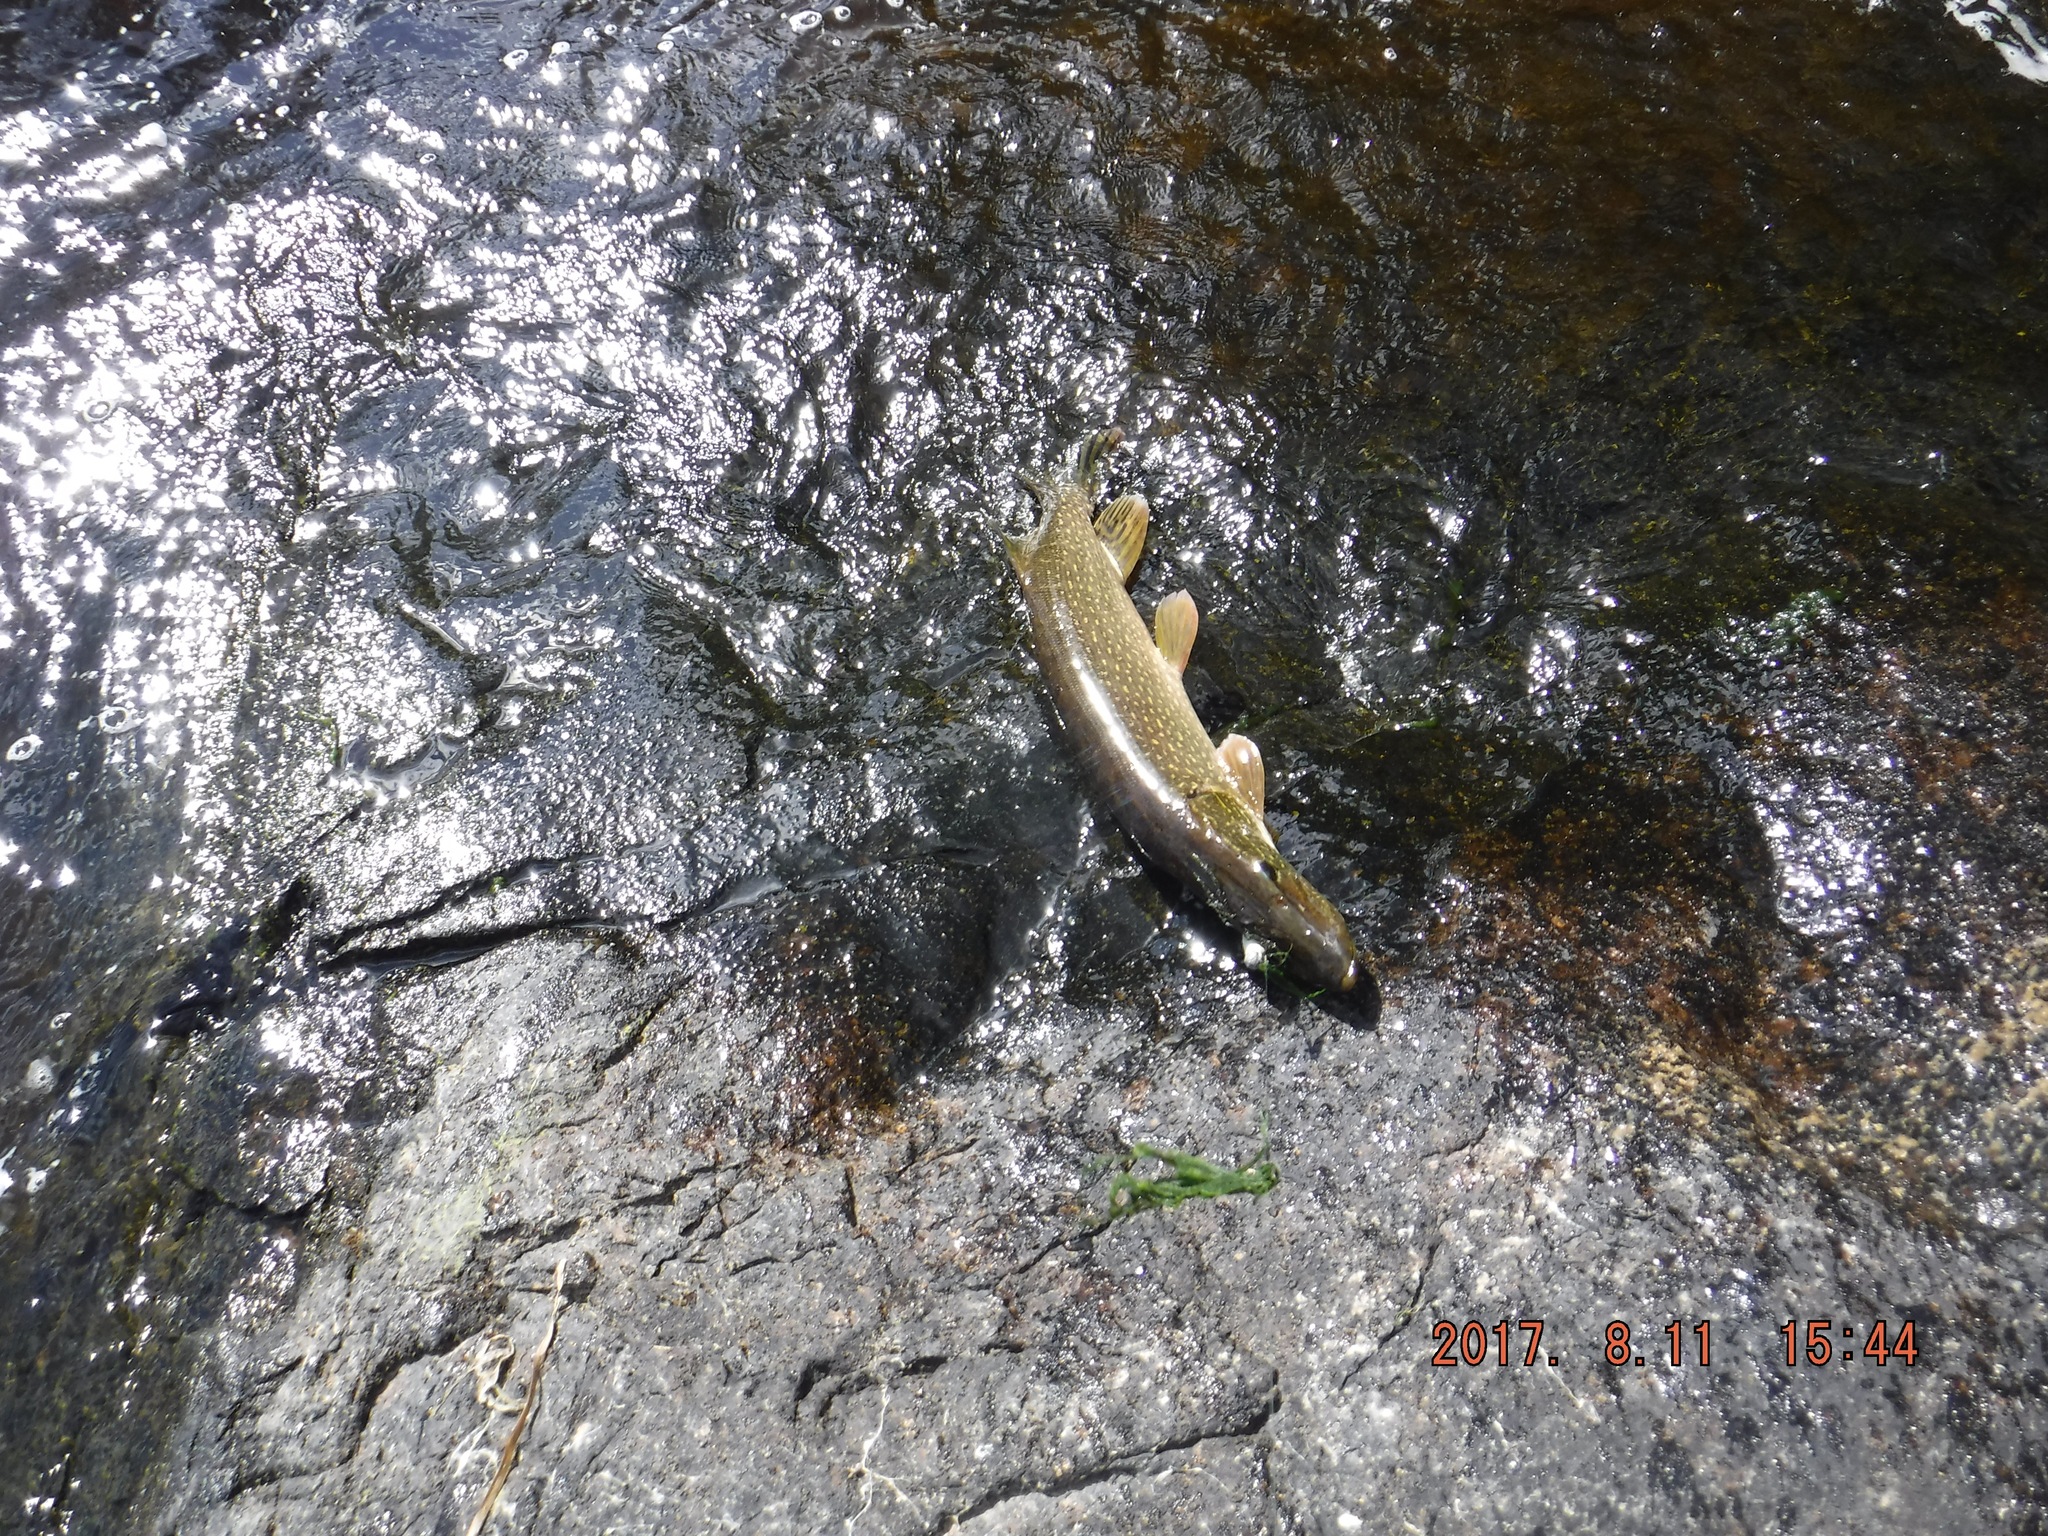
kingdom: Animalia
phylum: Chordata
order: Esociformes
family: Esocidae
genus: Esox
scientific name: Esox lucius
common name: Northern pike
